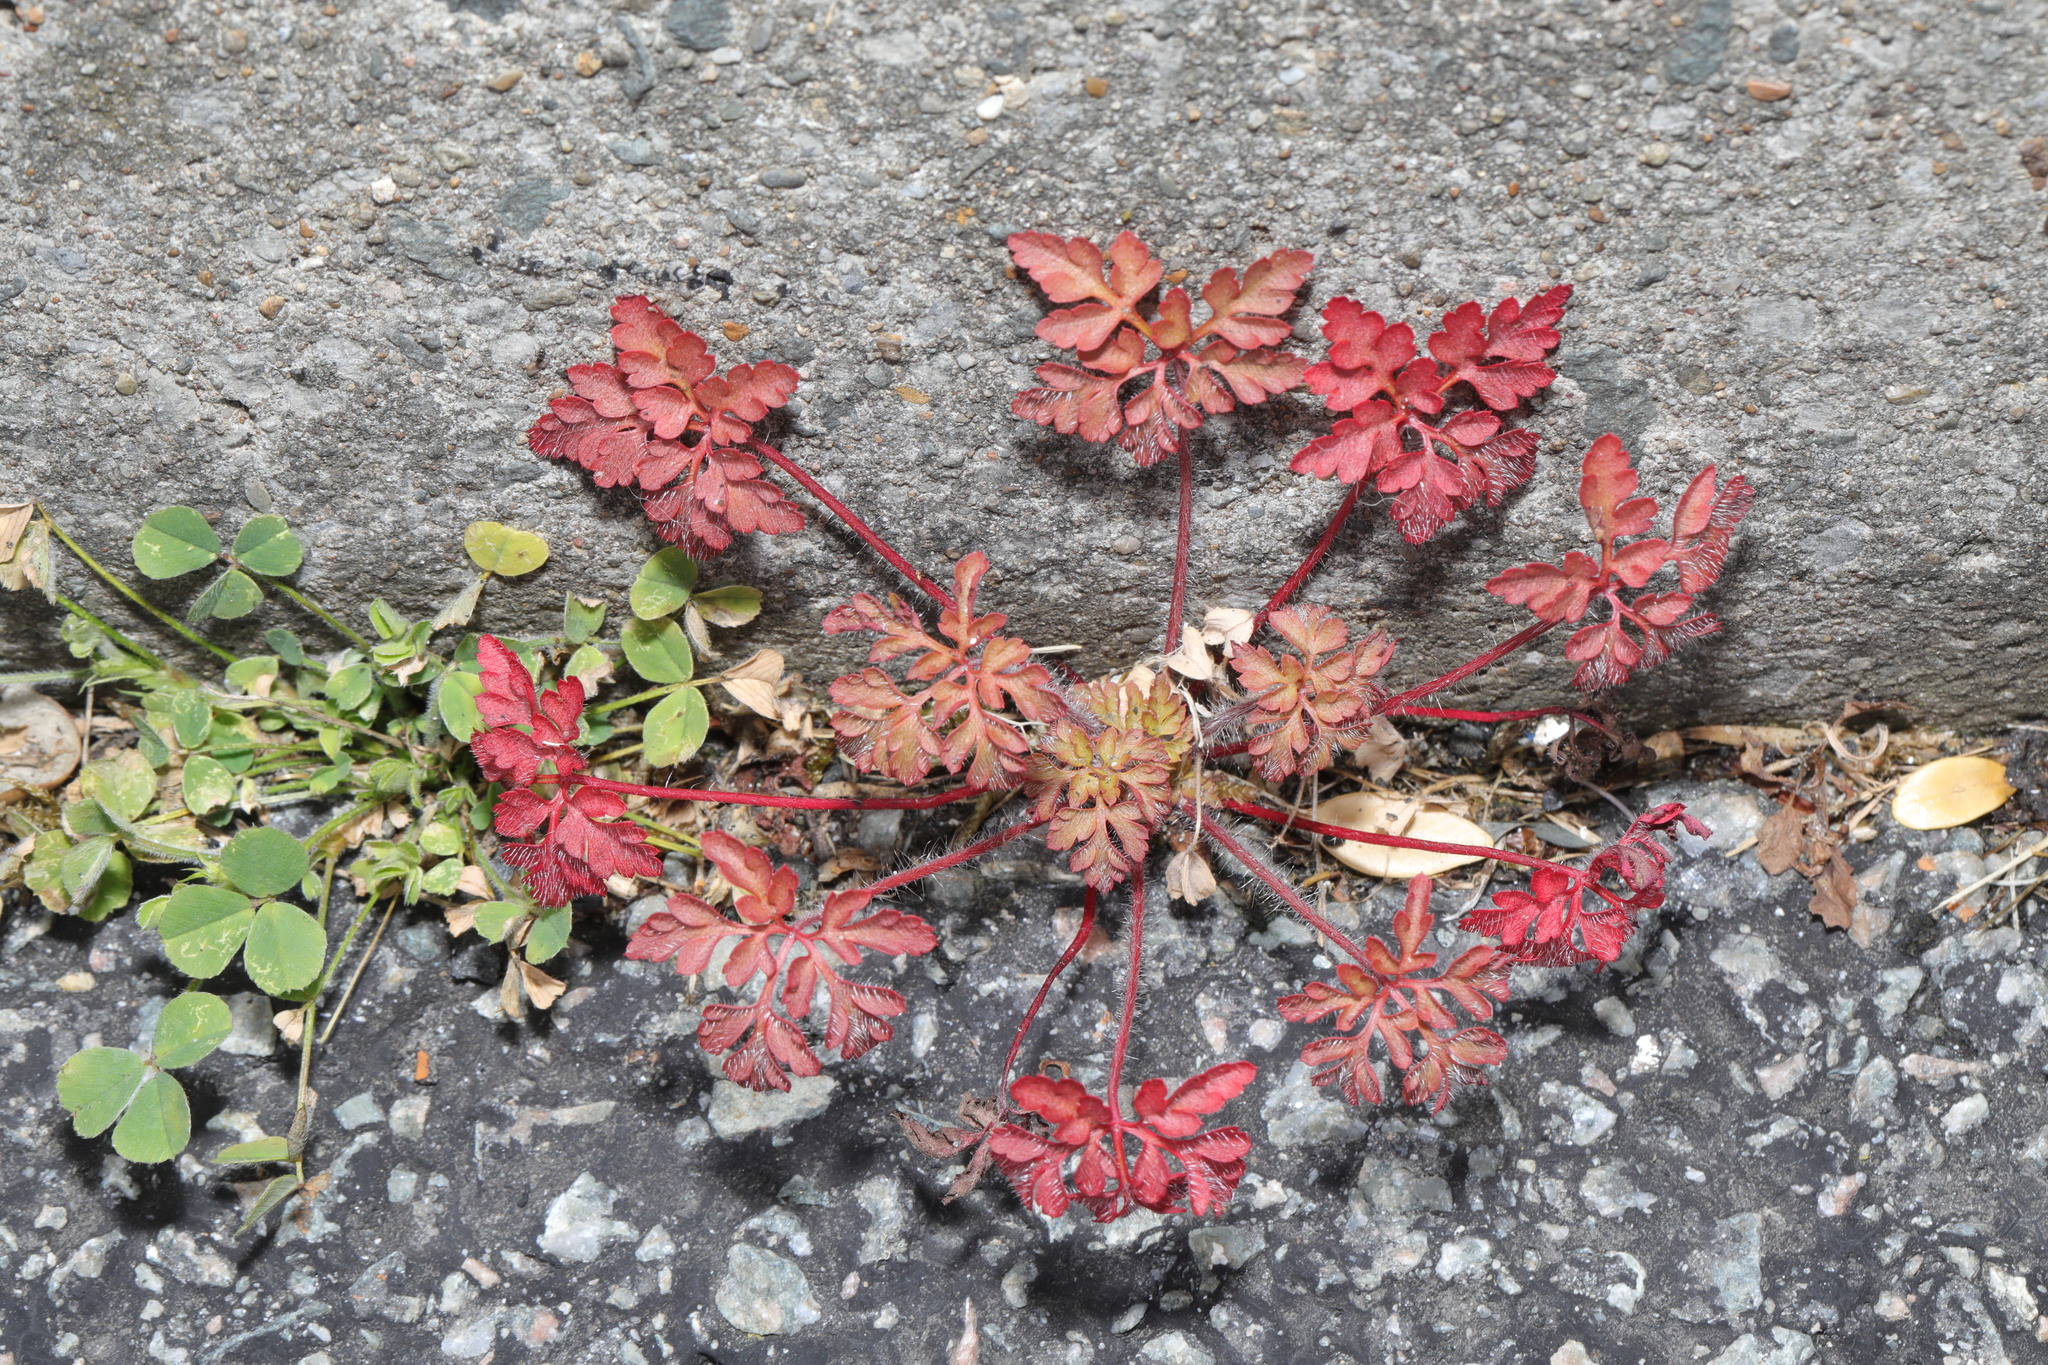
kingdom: Plantae
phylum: Tracheophyta
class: Magnoliopsida
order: Geraniales
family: Geraniaceae
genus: Geranium
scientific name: Geranium robertianum
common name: Herb-robert
